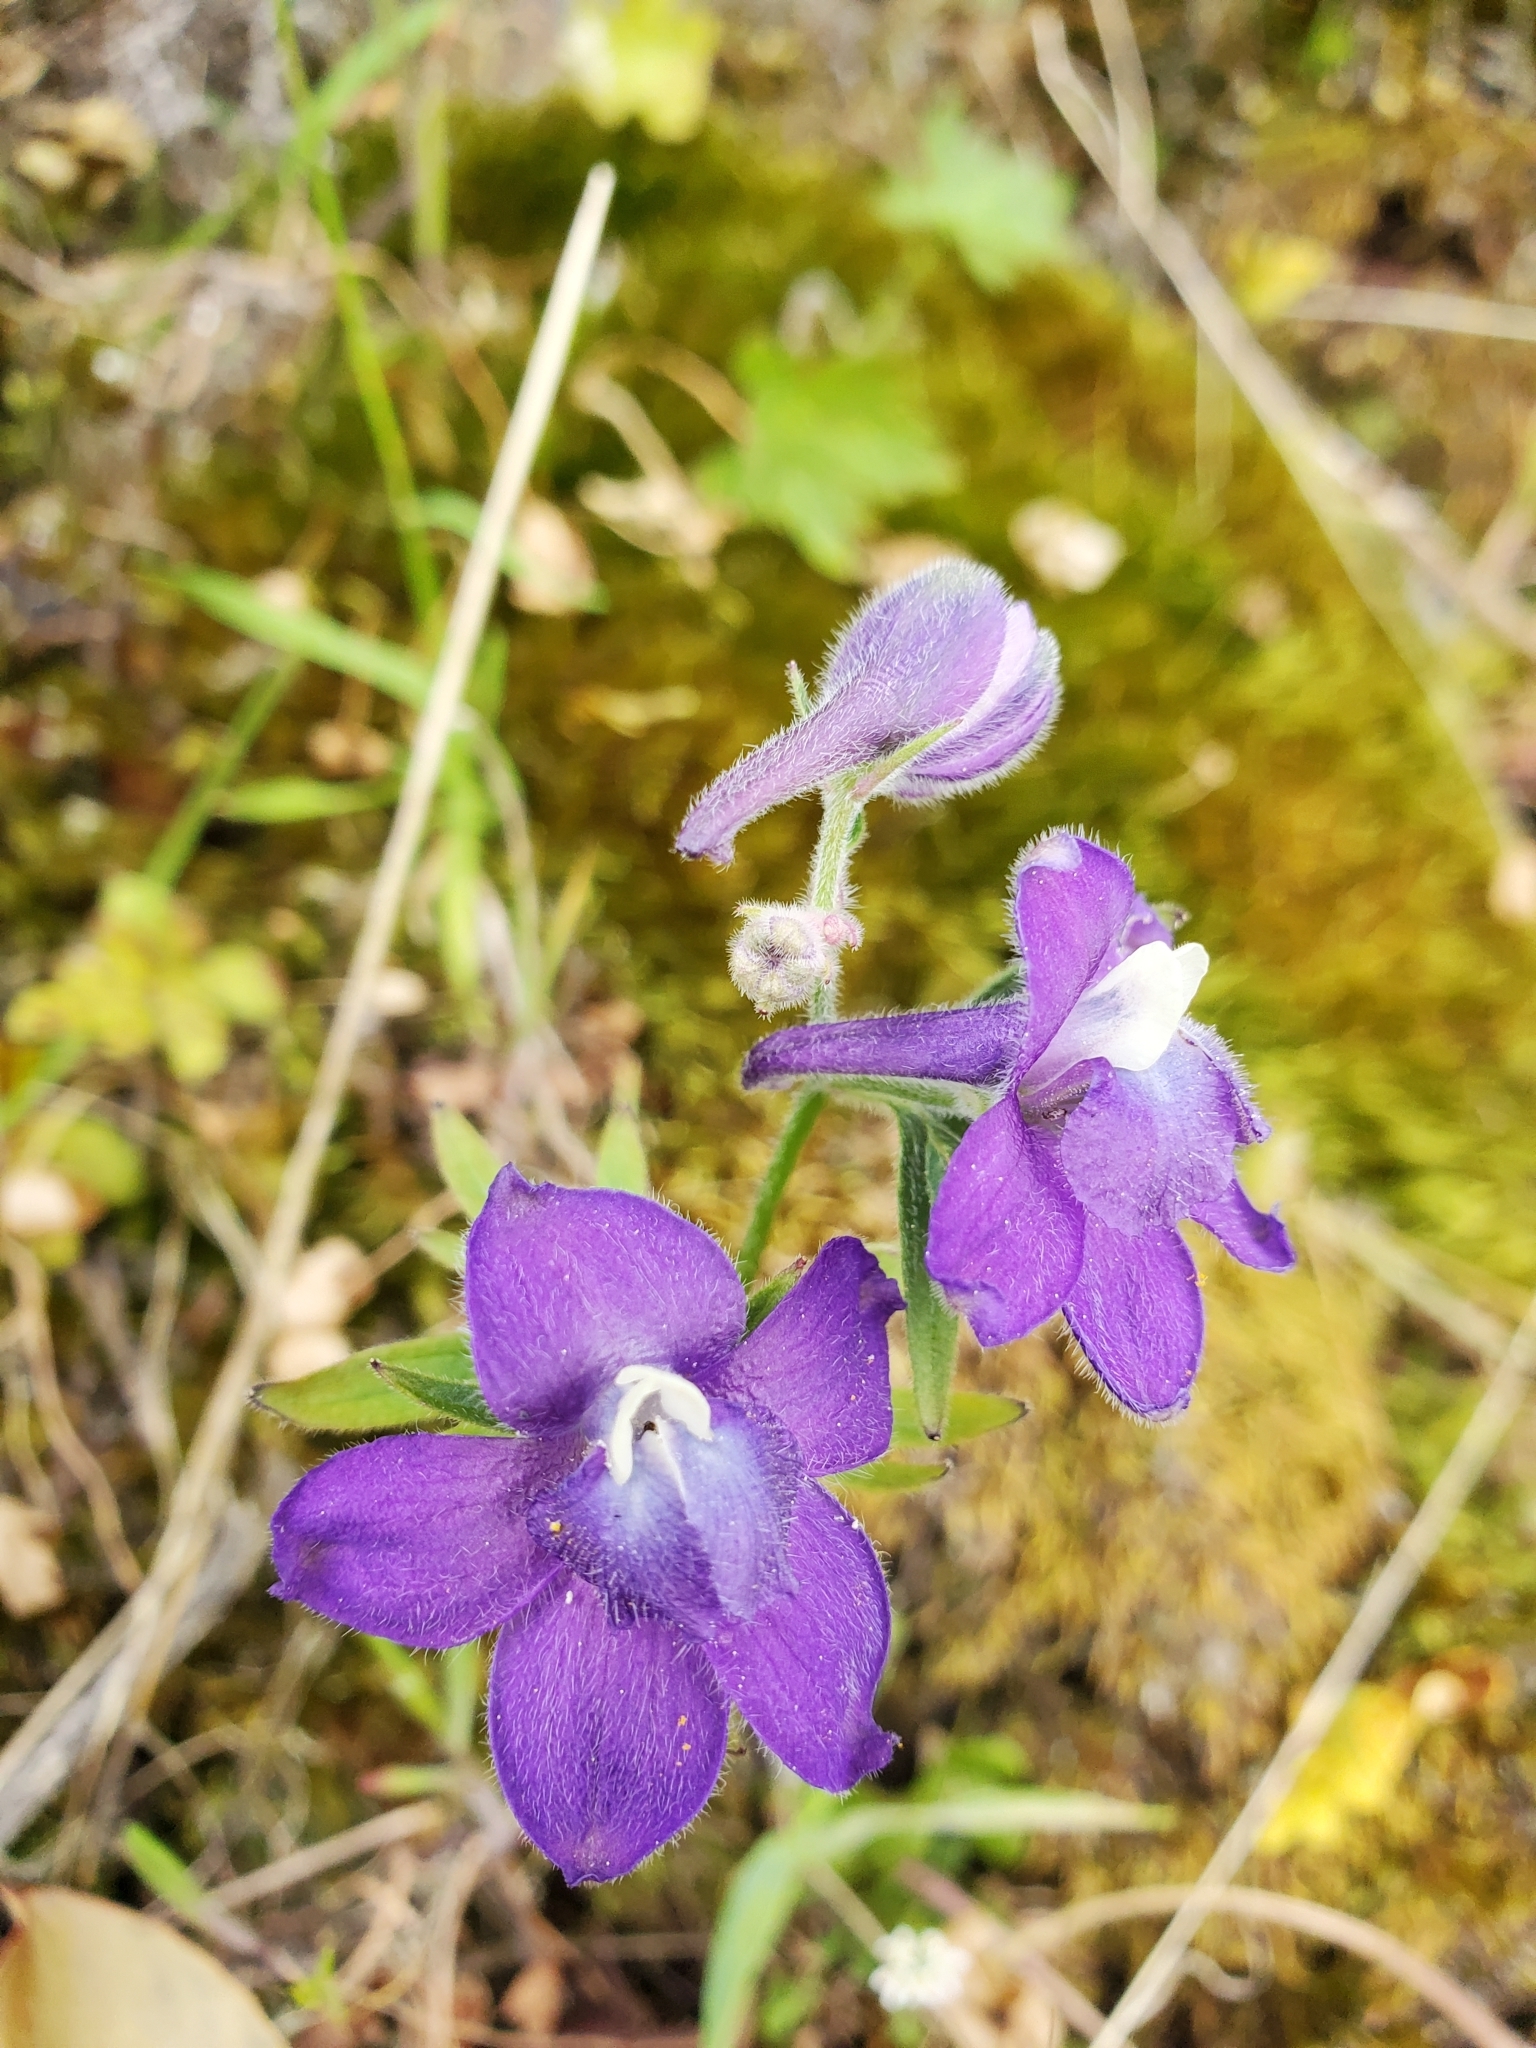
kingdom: Plantae
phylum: Tracheophyta
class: Magnoliopsida
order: Ranunculales
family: Ranunculaceae
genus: Delphinium
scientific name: Delphinium menziesii
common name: Menzies's larkspur
